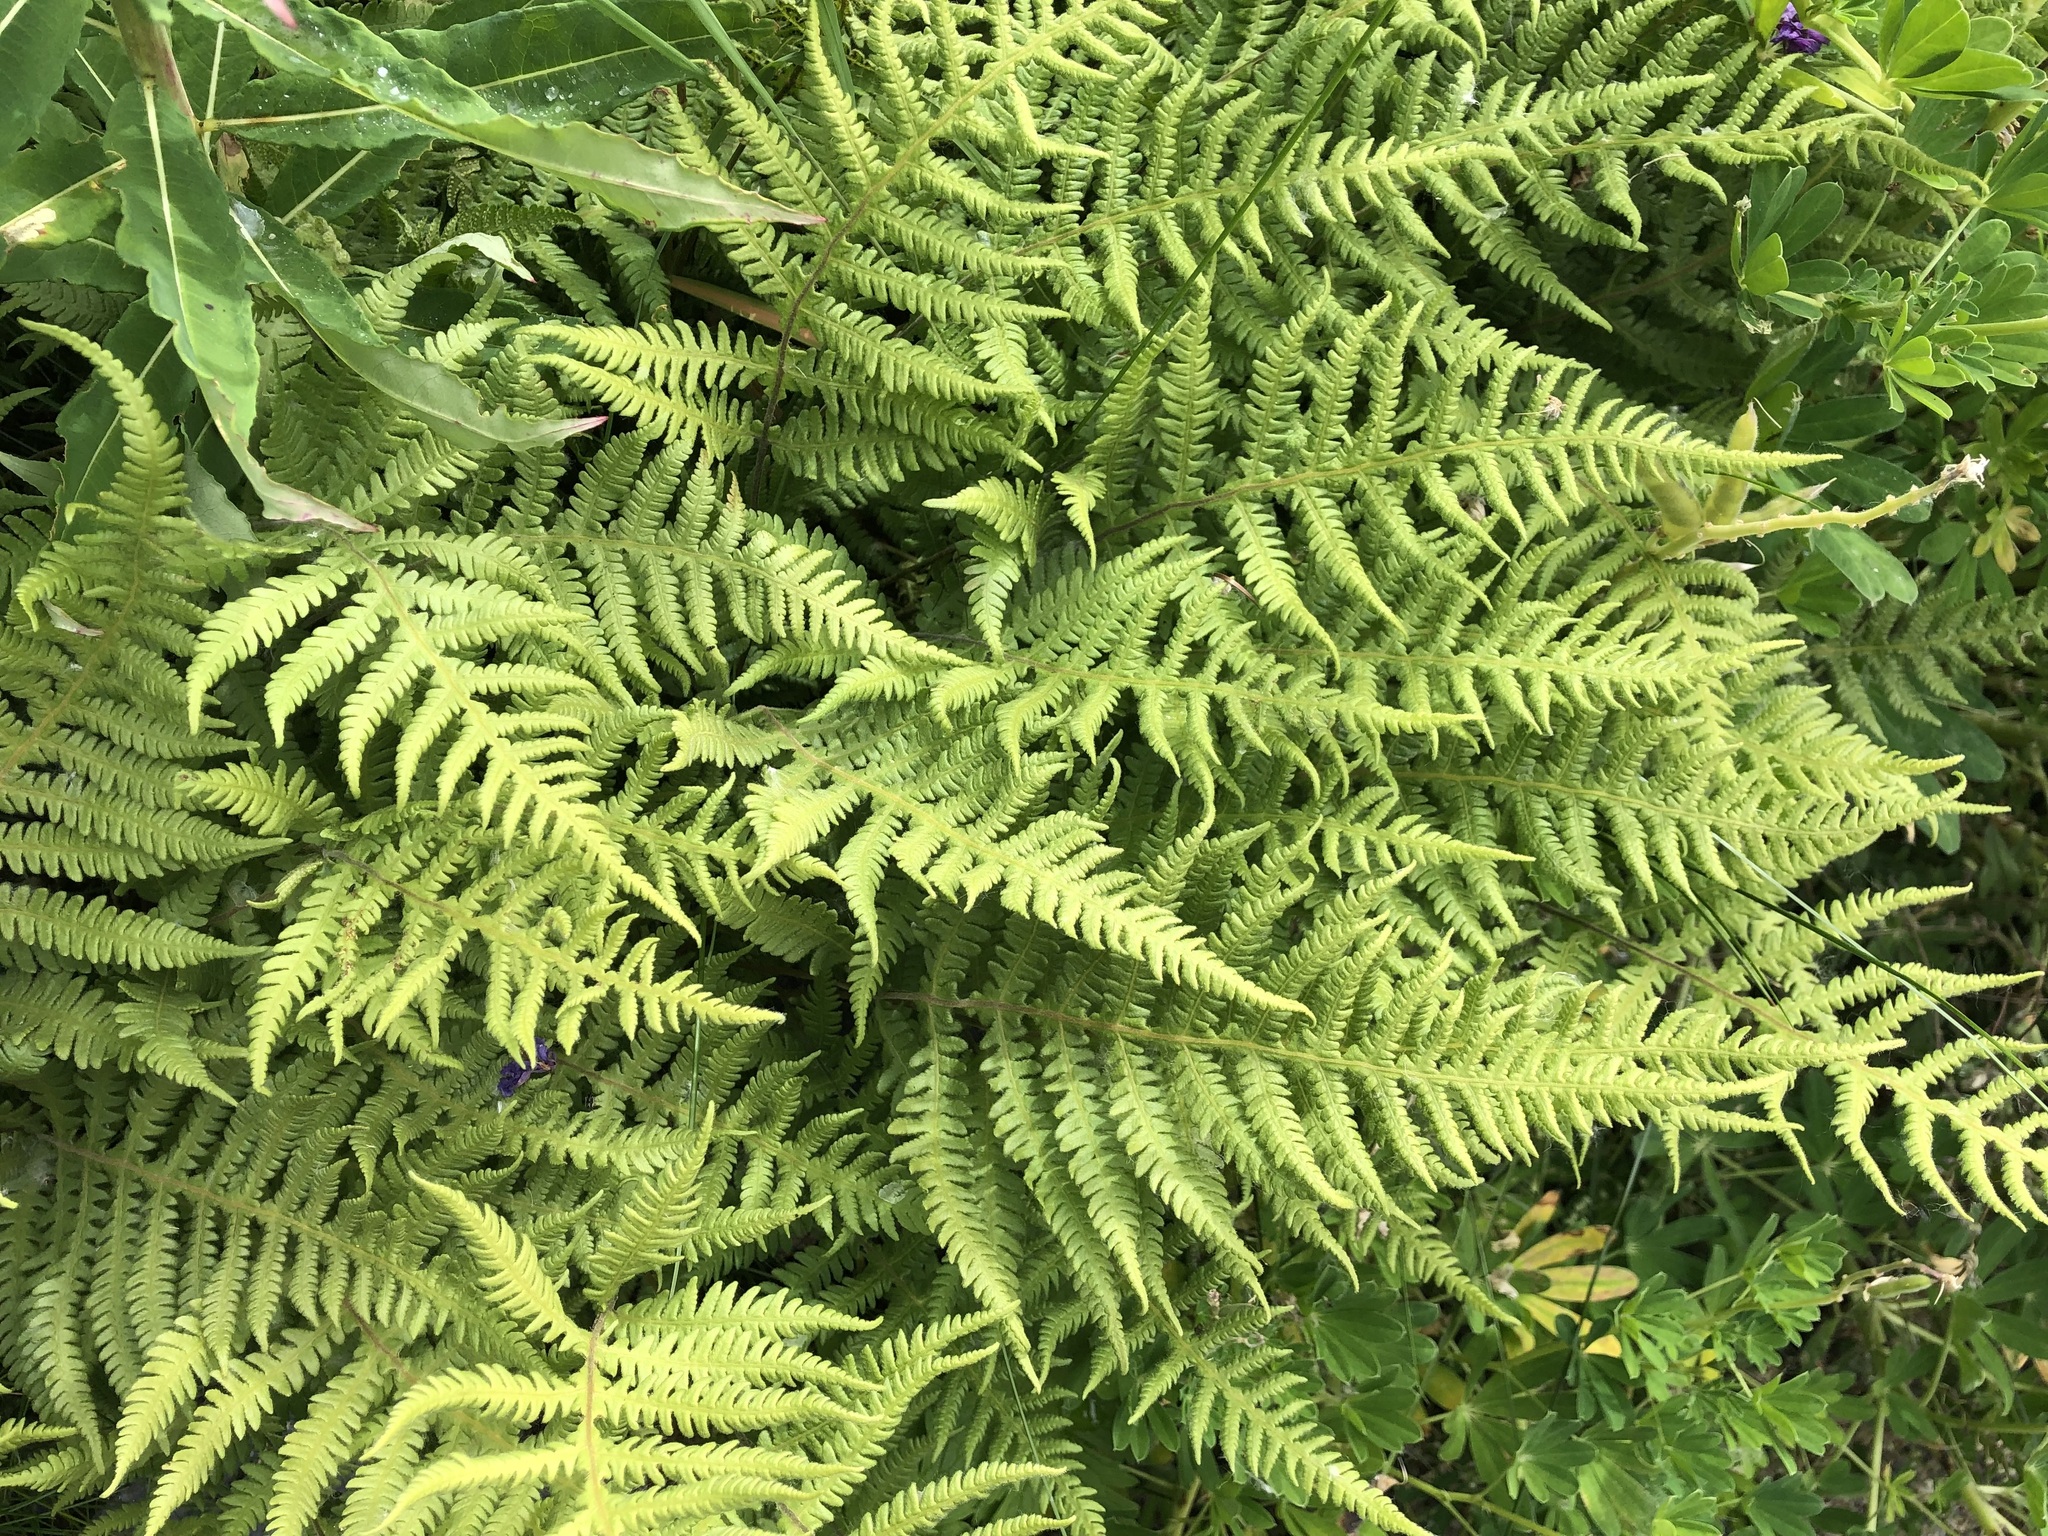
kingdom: Plantae
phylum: Tracheophyta
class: Polypodiopsida
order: Polypodiales
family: Thelypteridaceae
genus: Phegopteris
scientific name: Phegopteris connectilis
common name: Beech fern
